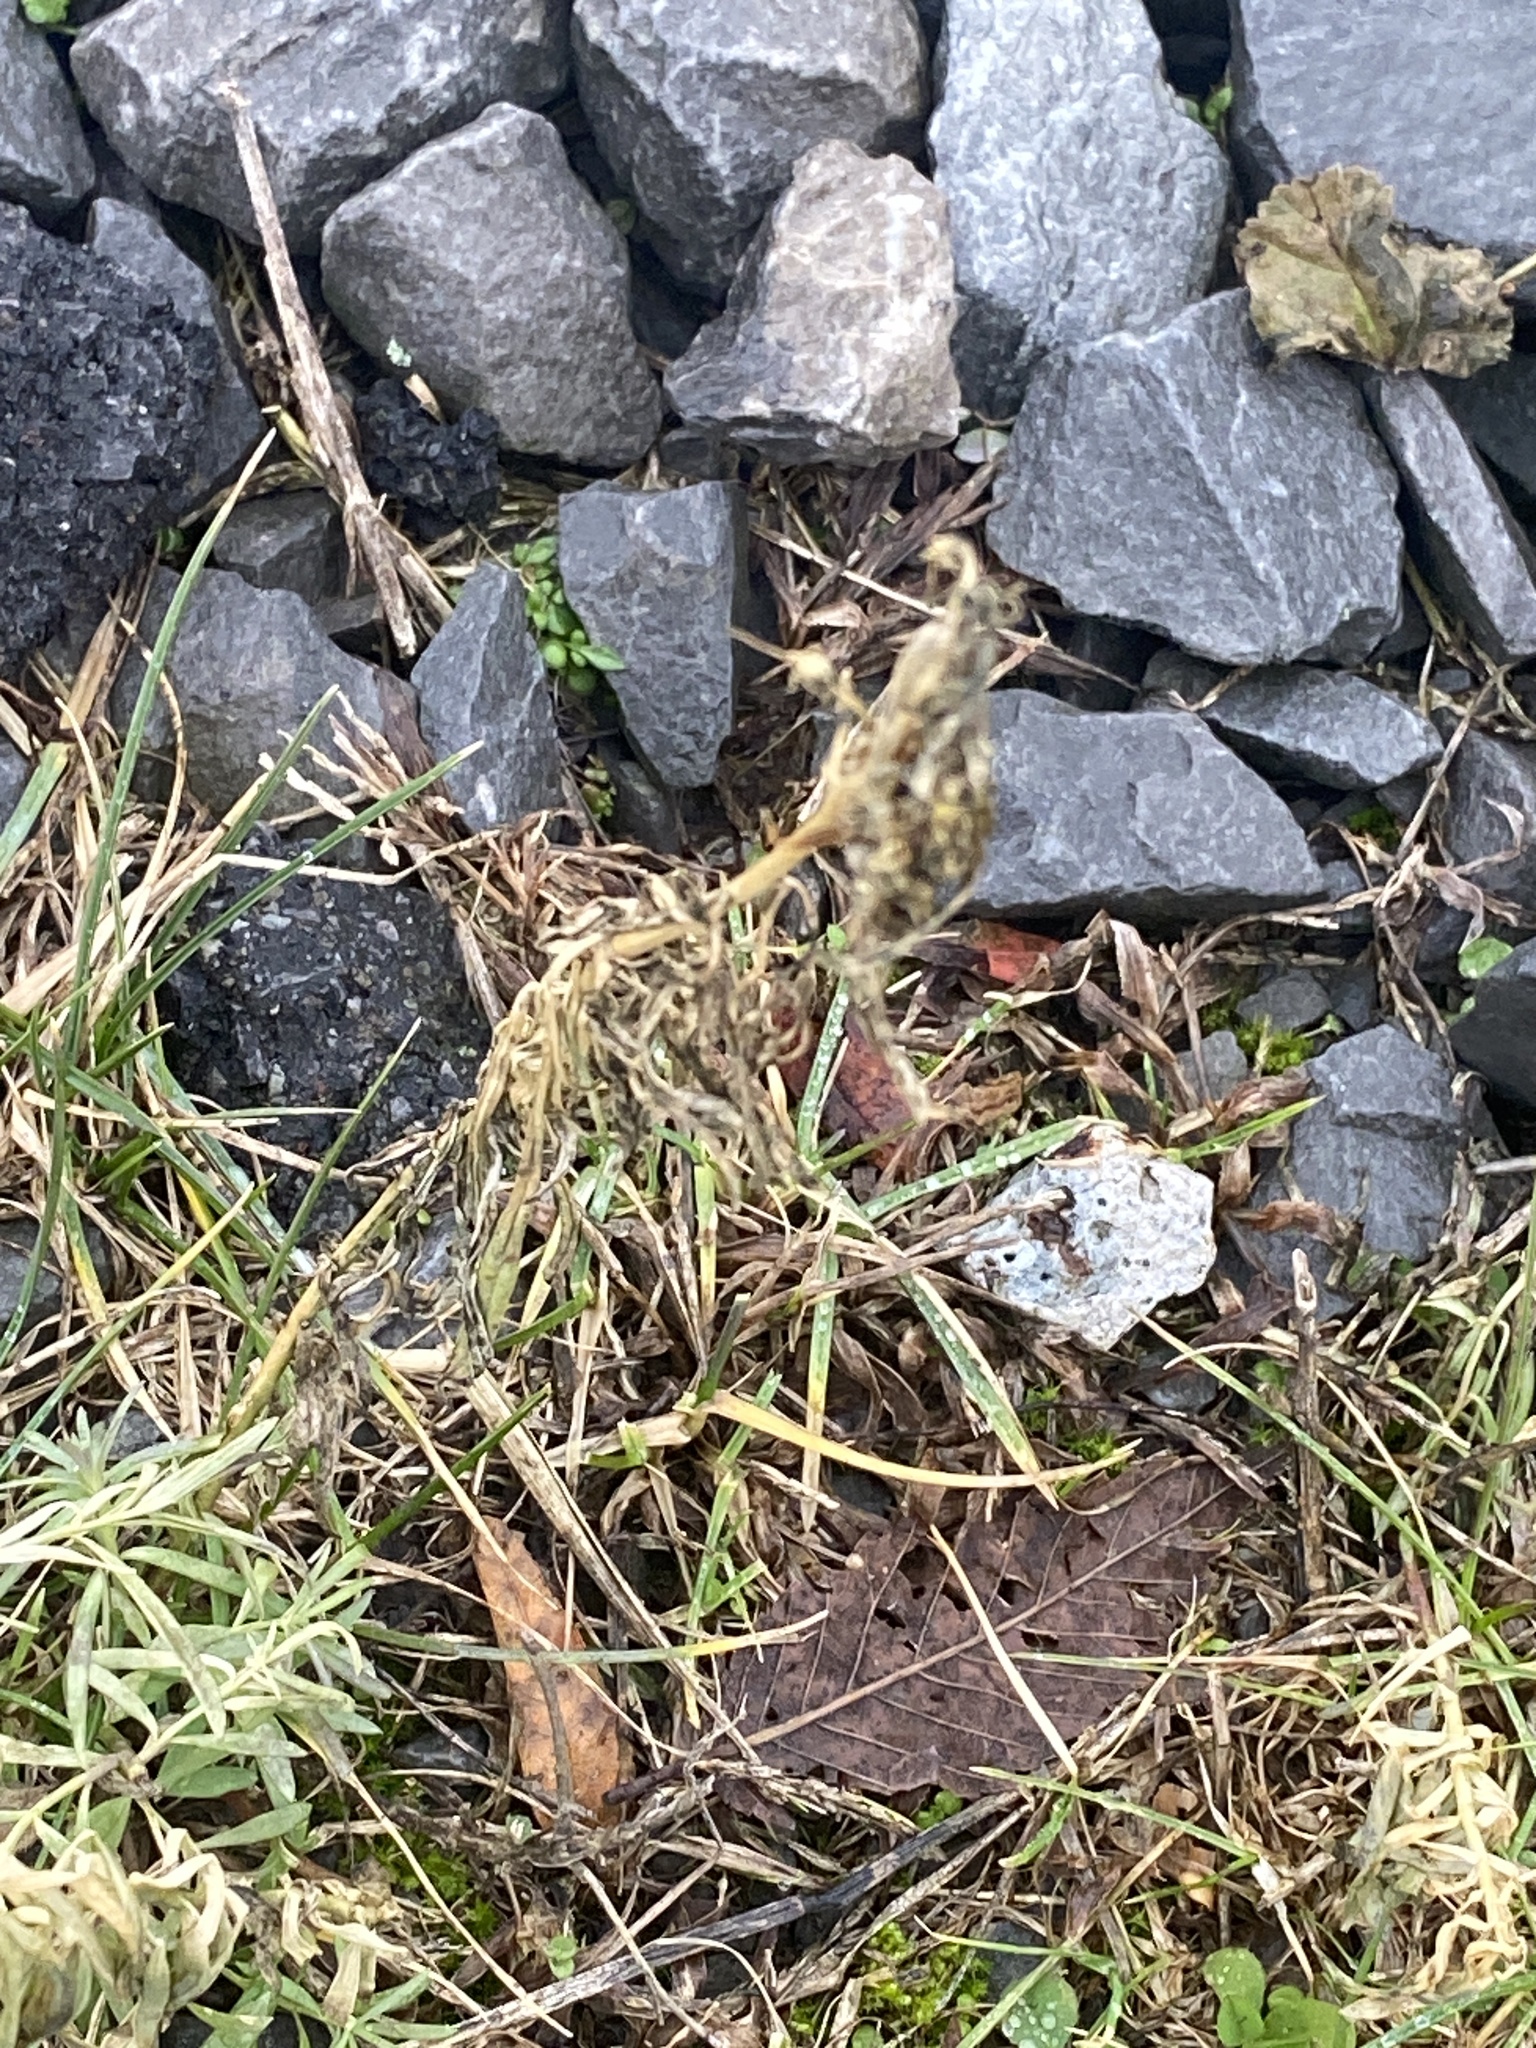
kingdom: Plantae
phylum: Tracheophyta
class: Magnoliopsida
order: Lamiales
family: Plantaginaceae
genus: Linaria
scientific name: Linaria vulgaris
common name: Butter and eggs
